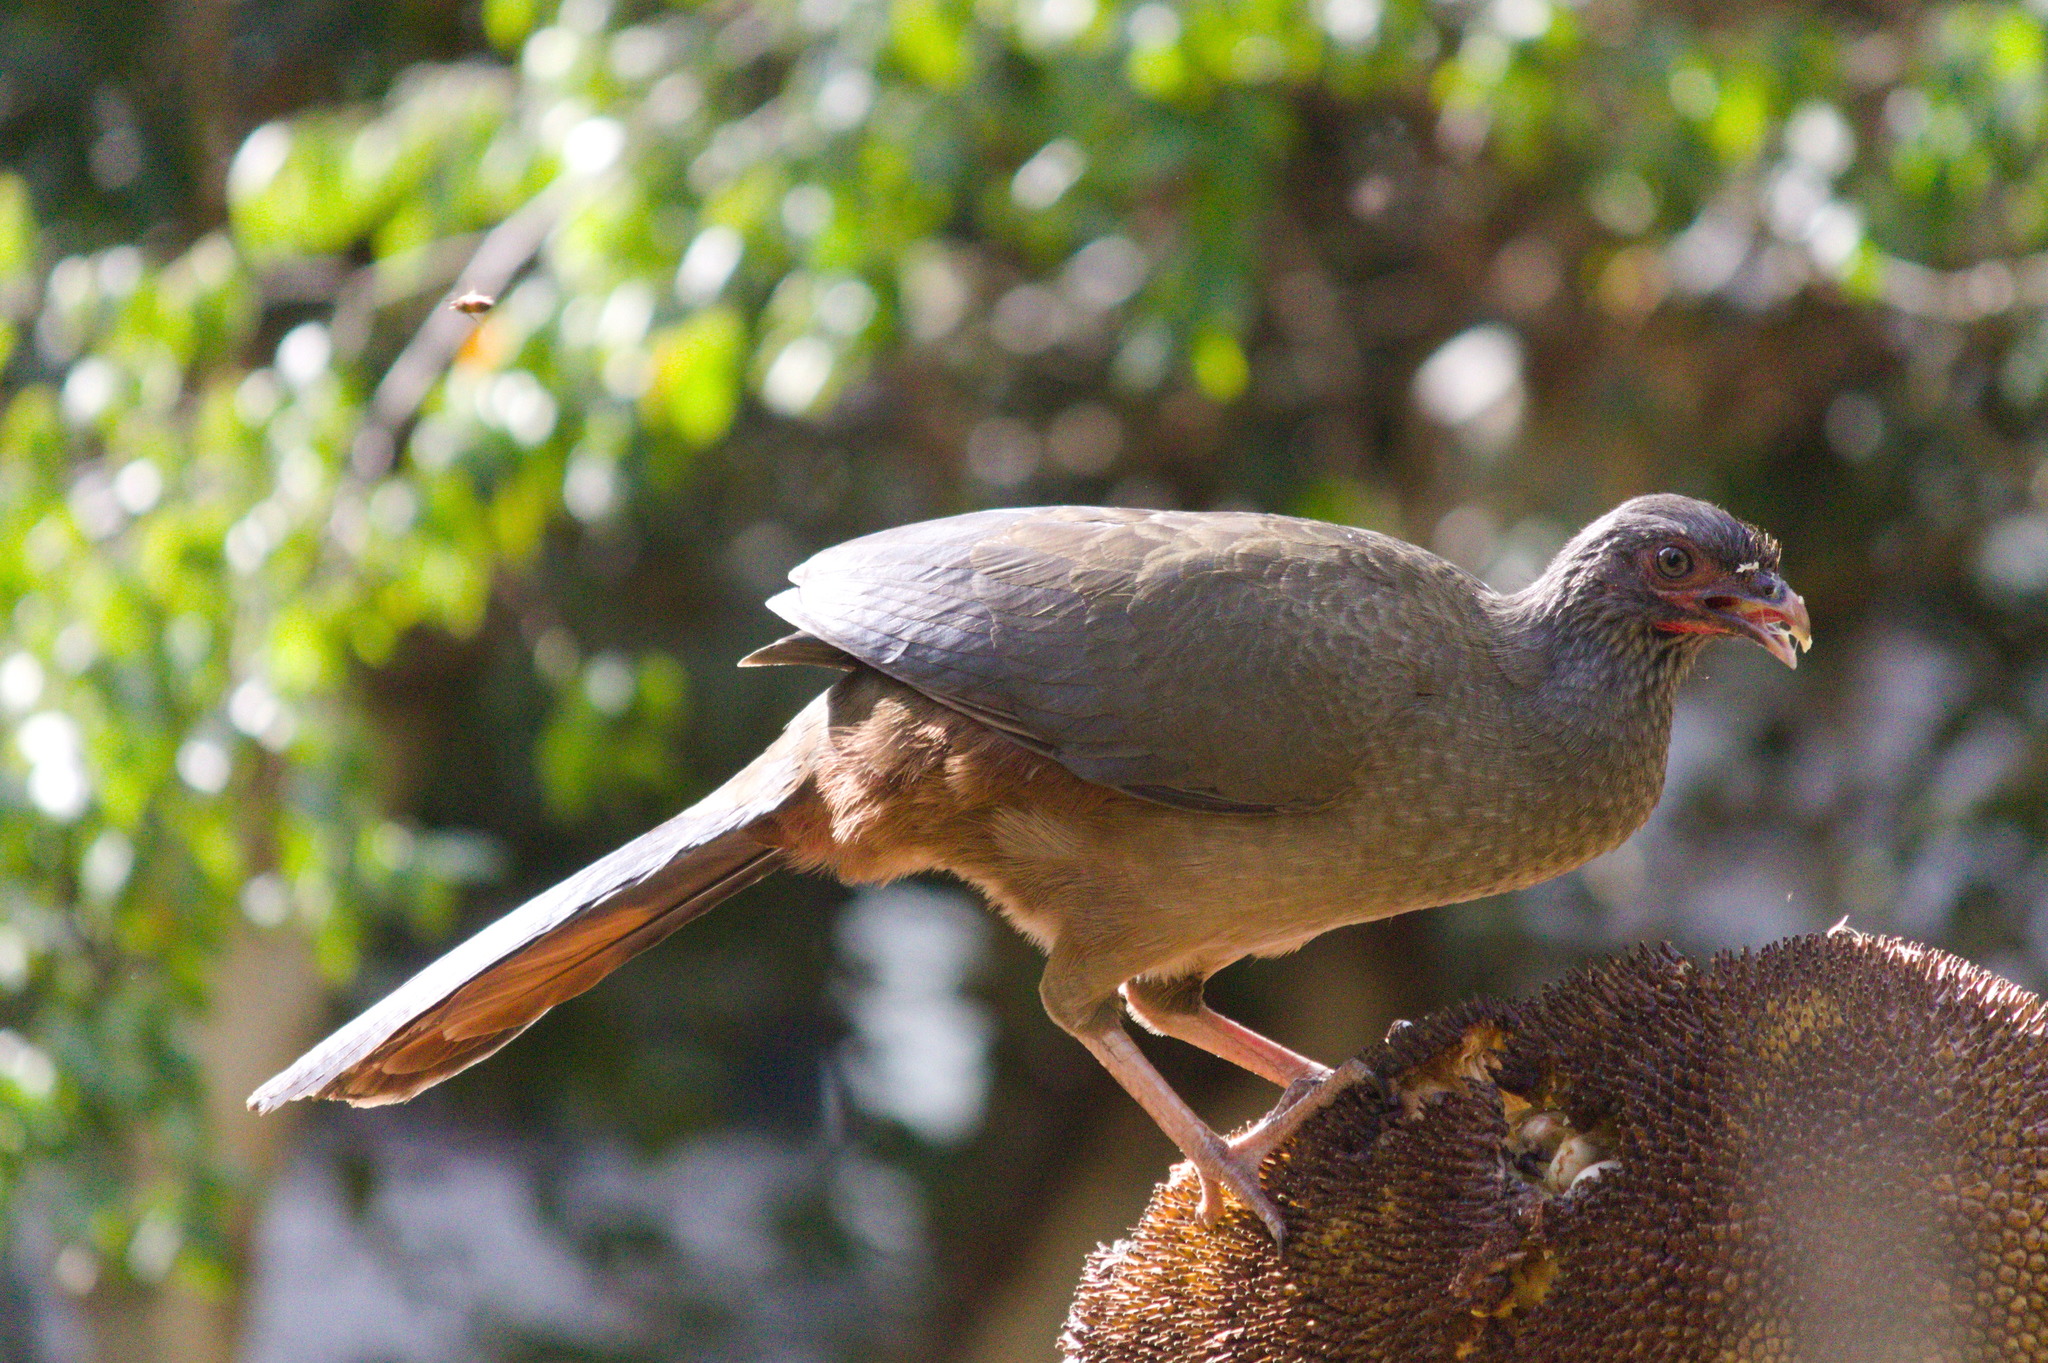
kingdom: Animalia
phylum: Chordata
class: Aves
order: Galliformes
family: Cracidae
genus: Ortalis
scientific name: Ortalis canicollis
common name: Chaco chachalaca
